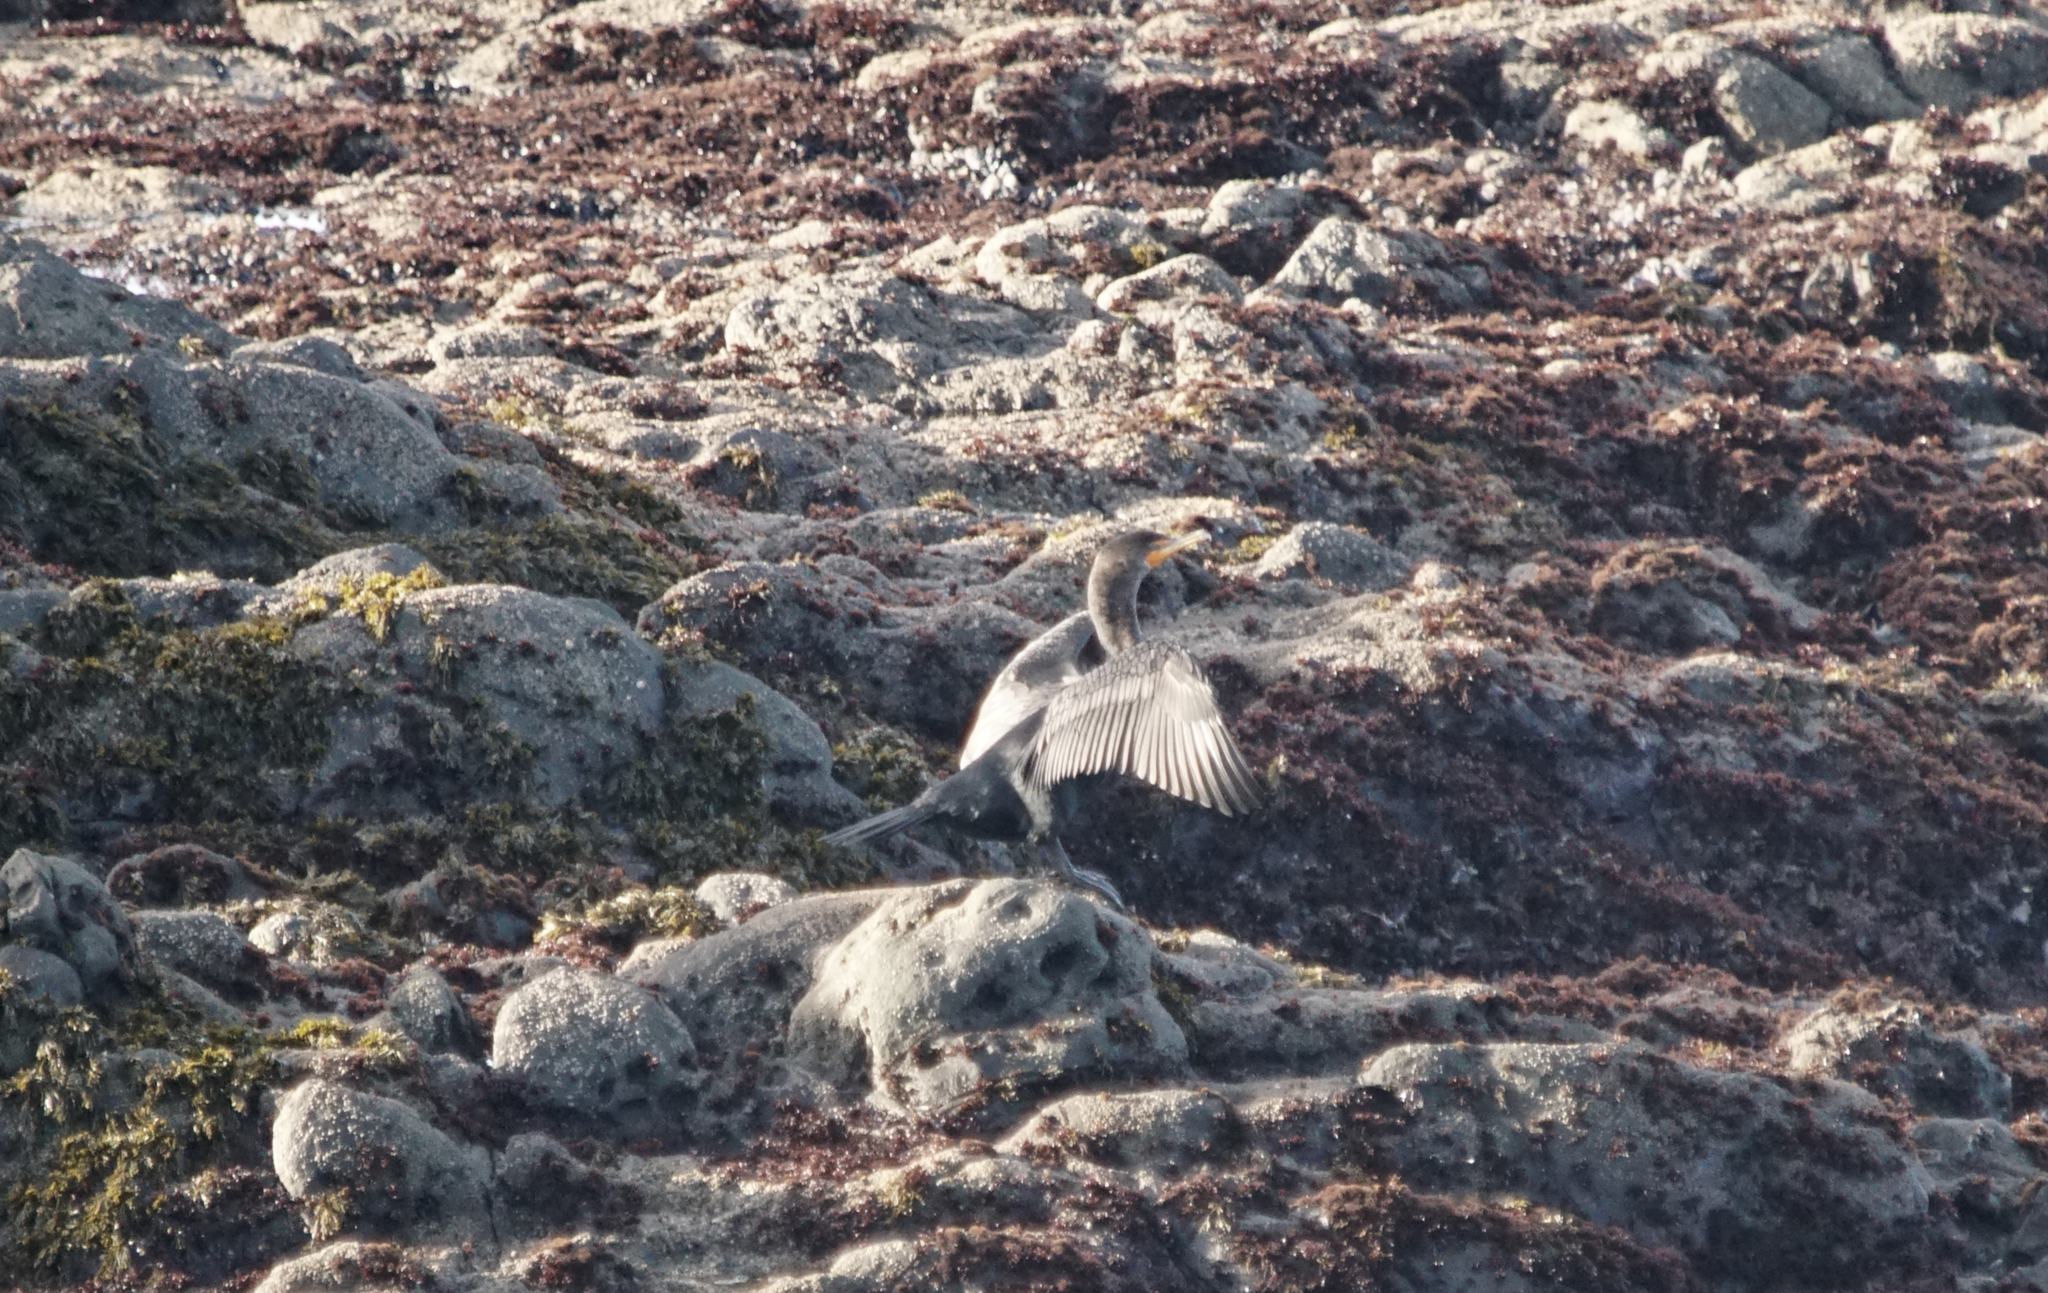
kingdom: Animalia
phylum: Chordata
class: Aves
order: Suliformes
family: Phalacrocoracidae
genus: Phalacrocorax
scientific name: Phalacrocorax auritus
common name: Double-crested cormorant
